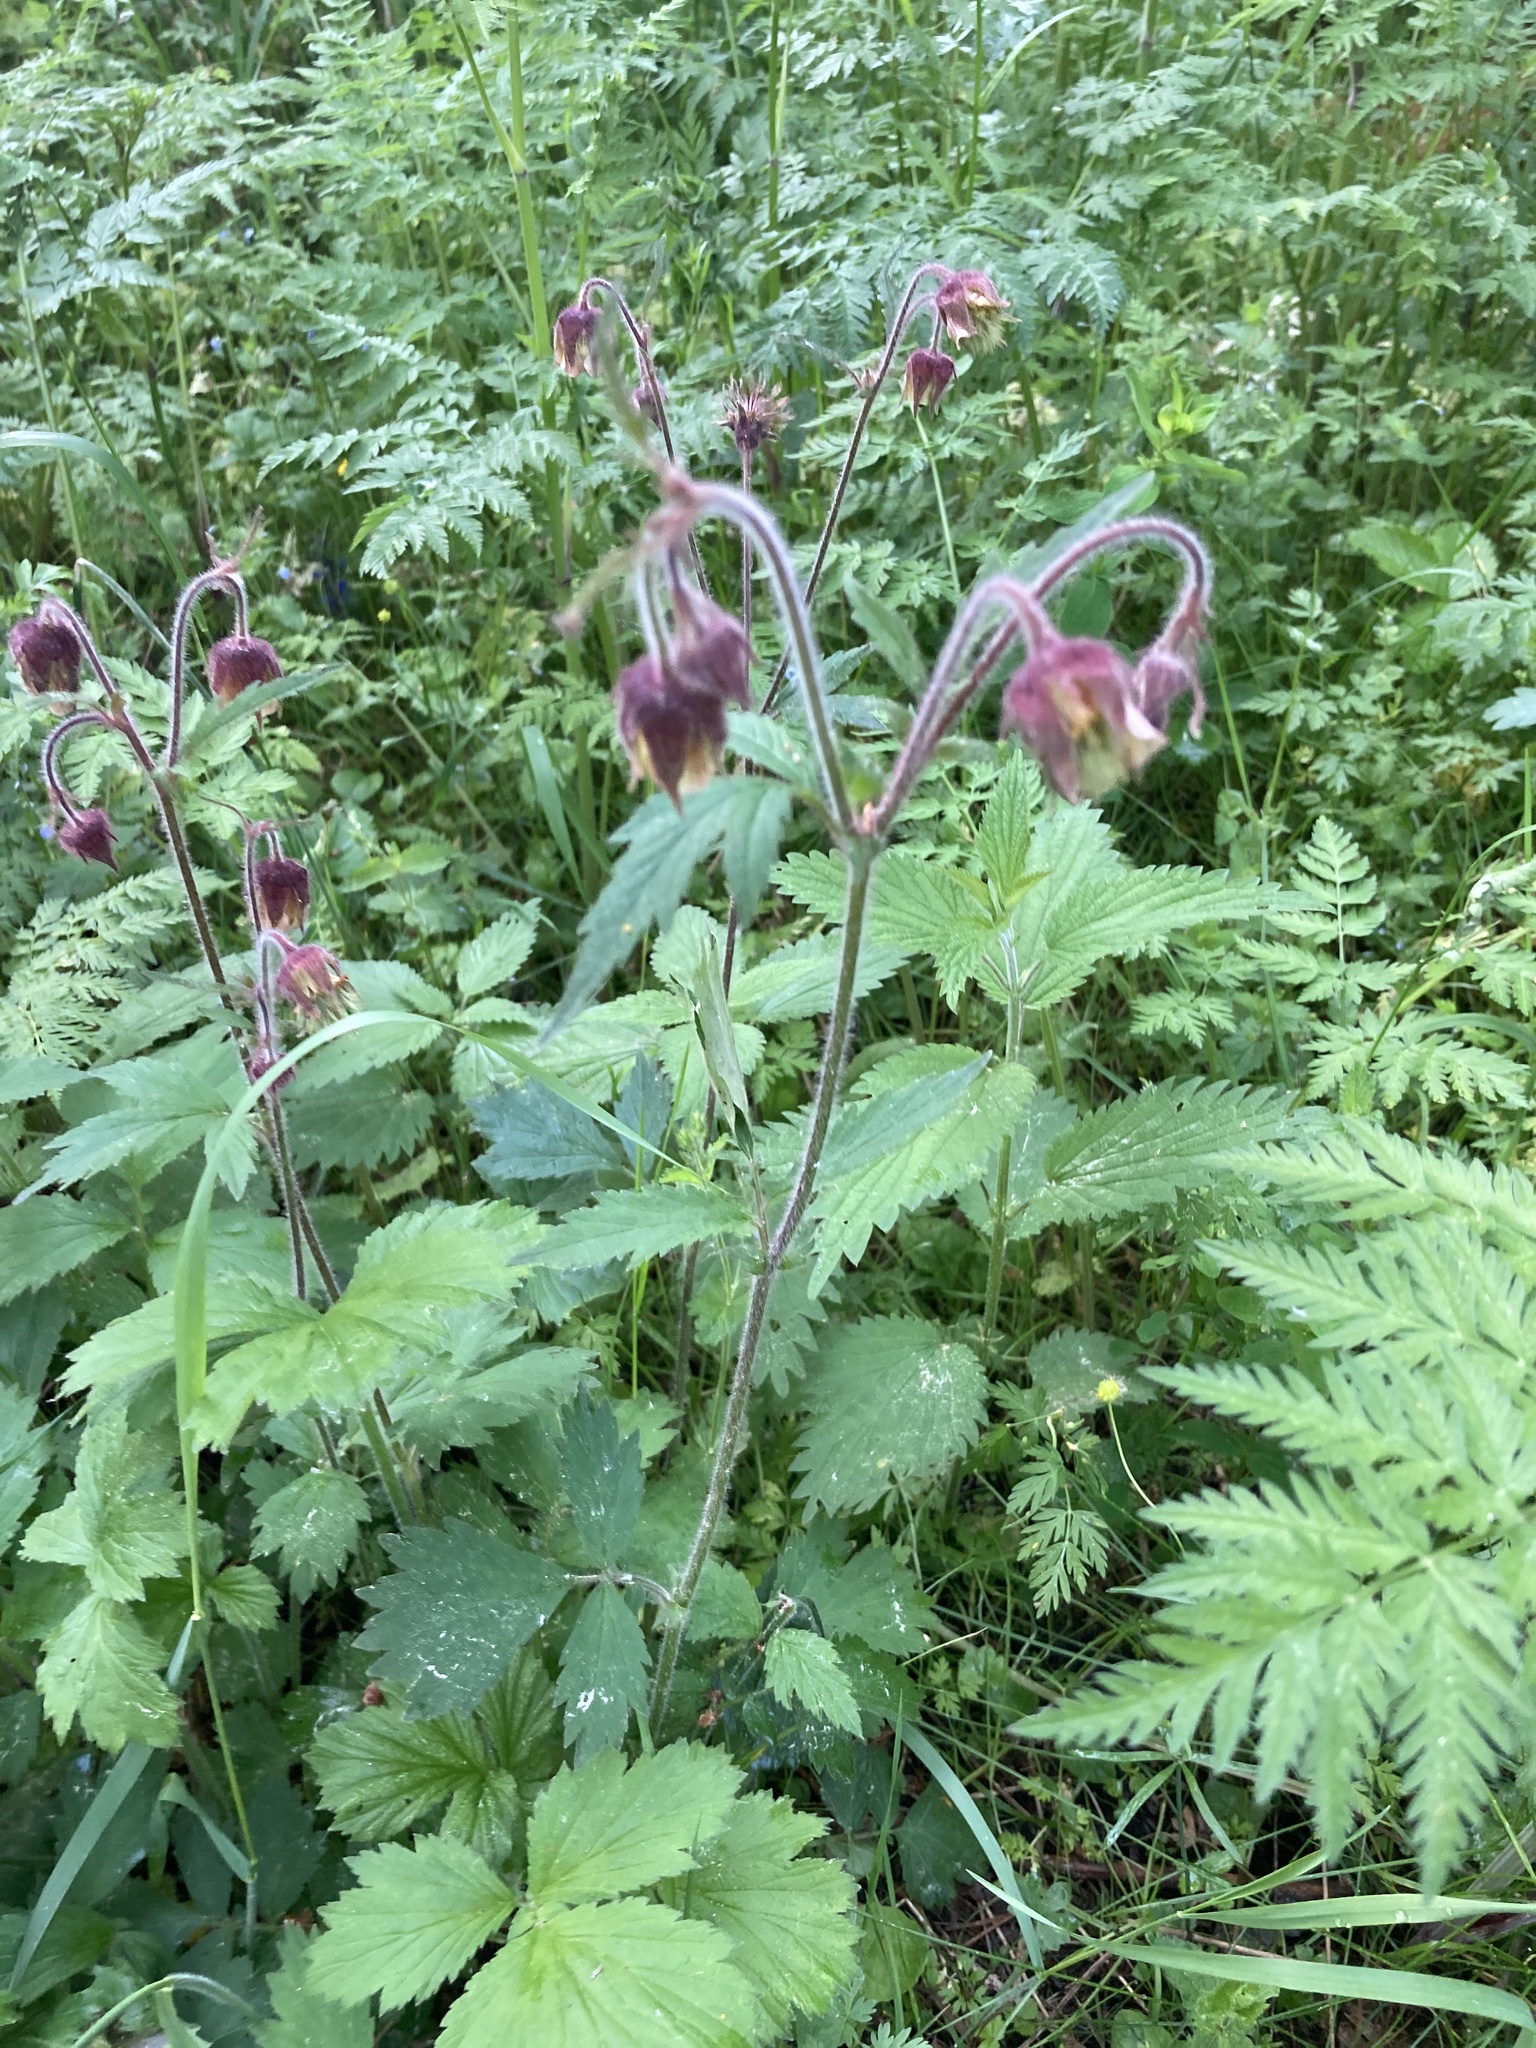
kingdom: Plantae
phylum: Tracheophyta
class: Magnoliopsida
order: Rosales
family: Rosaceae
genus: Geum
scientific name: Geum rivale
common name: Water avens
